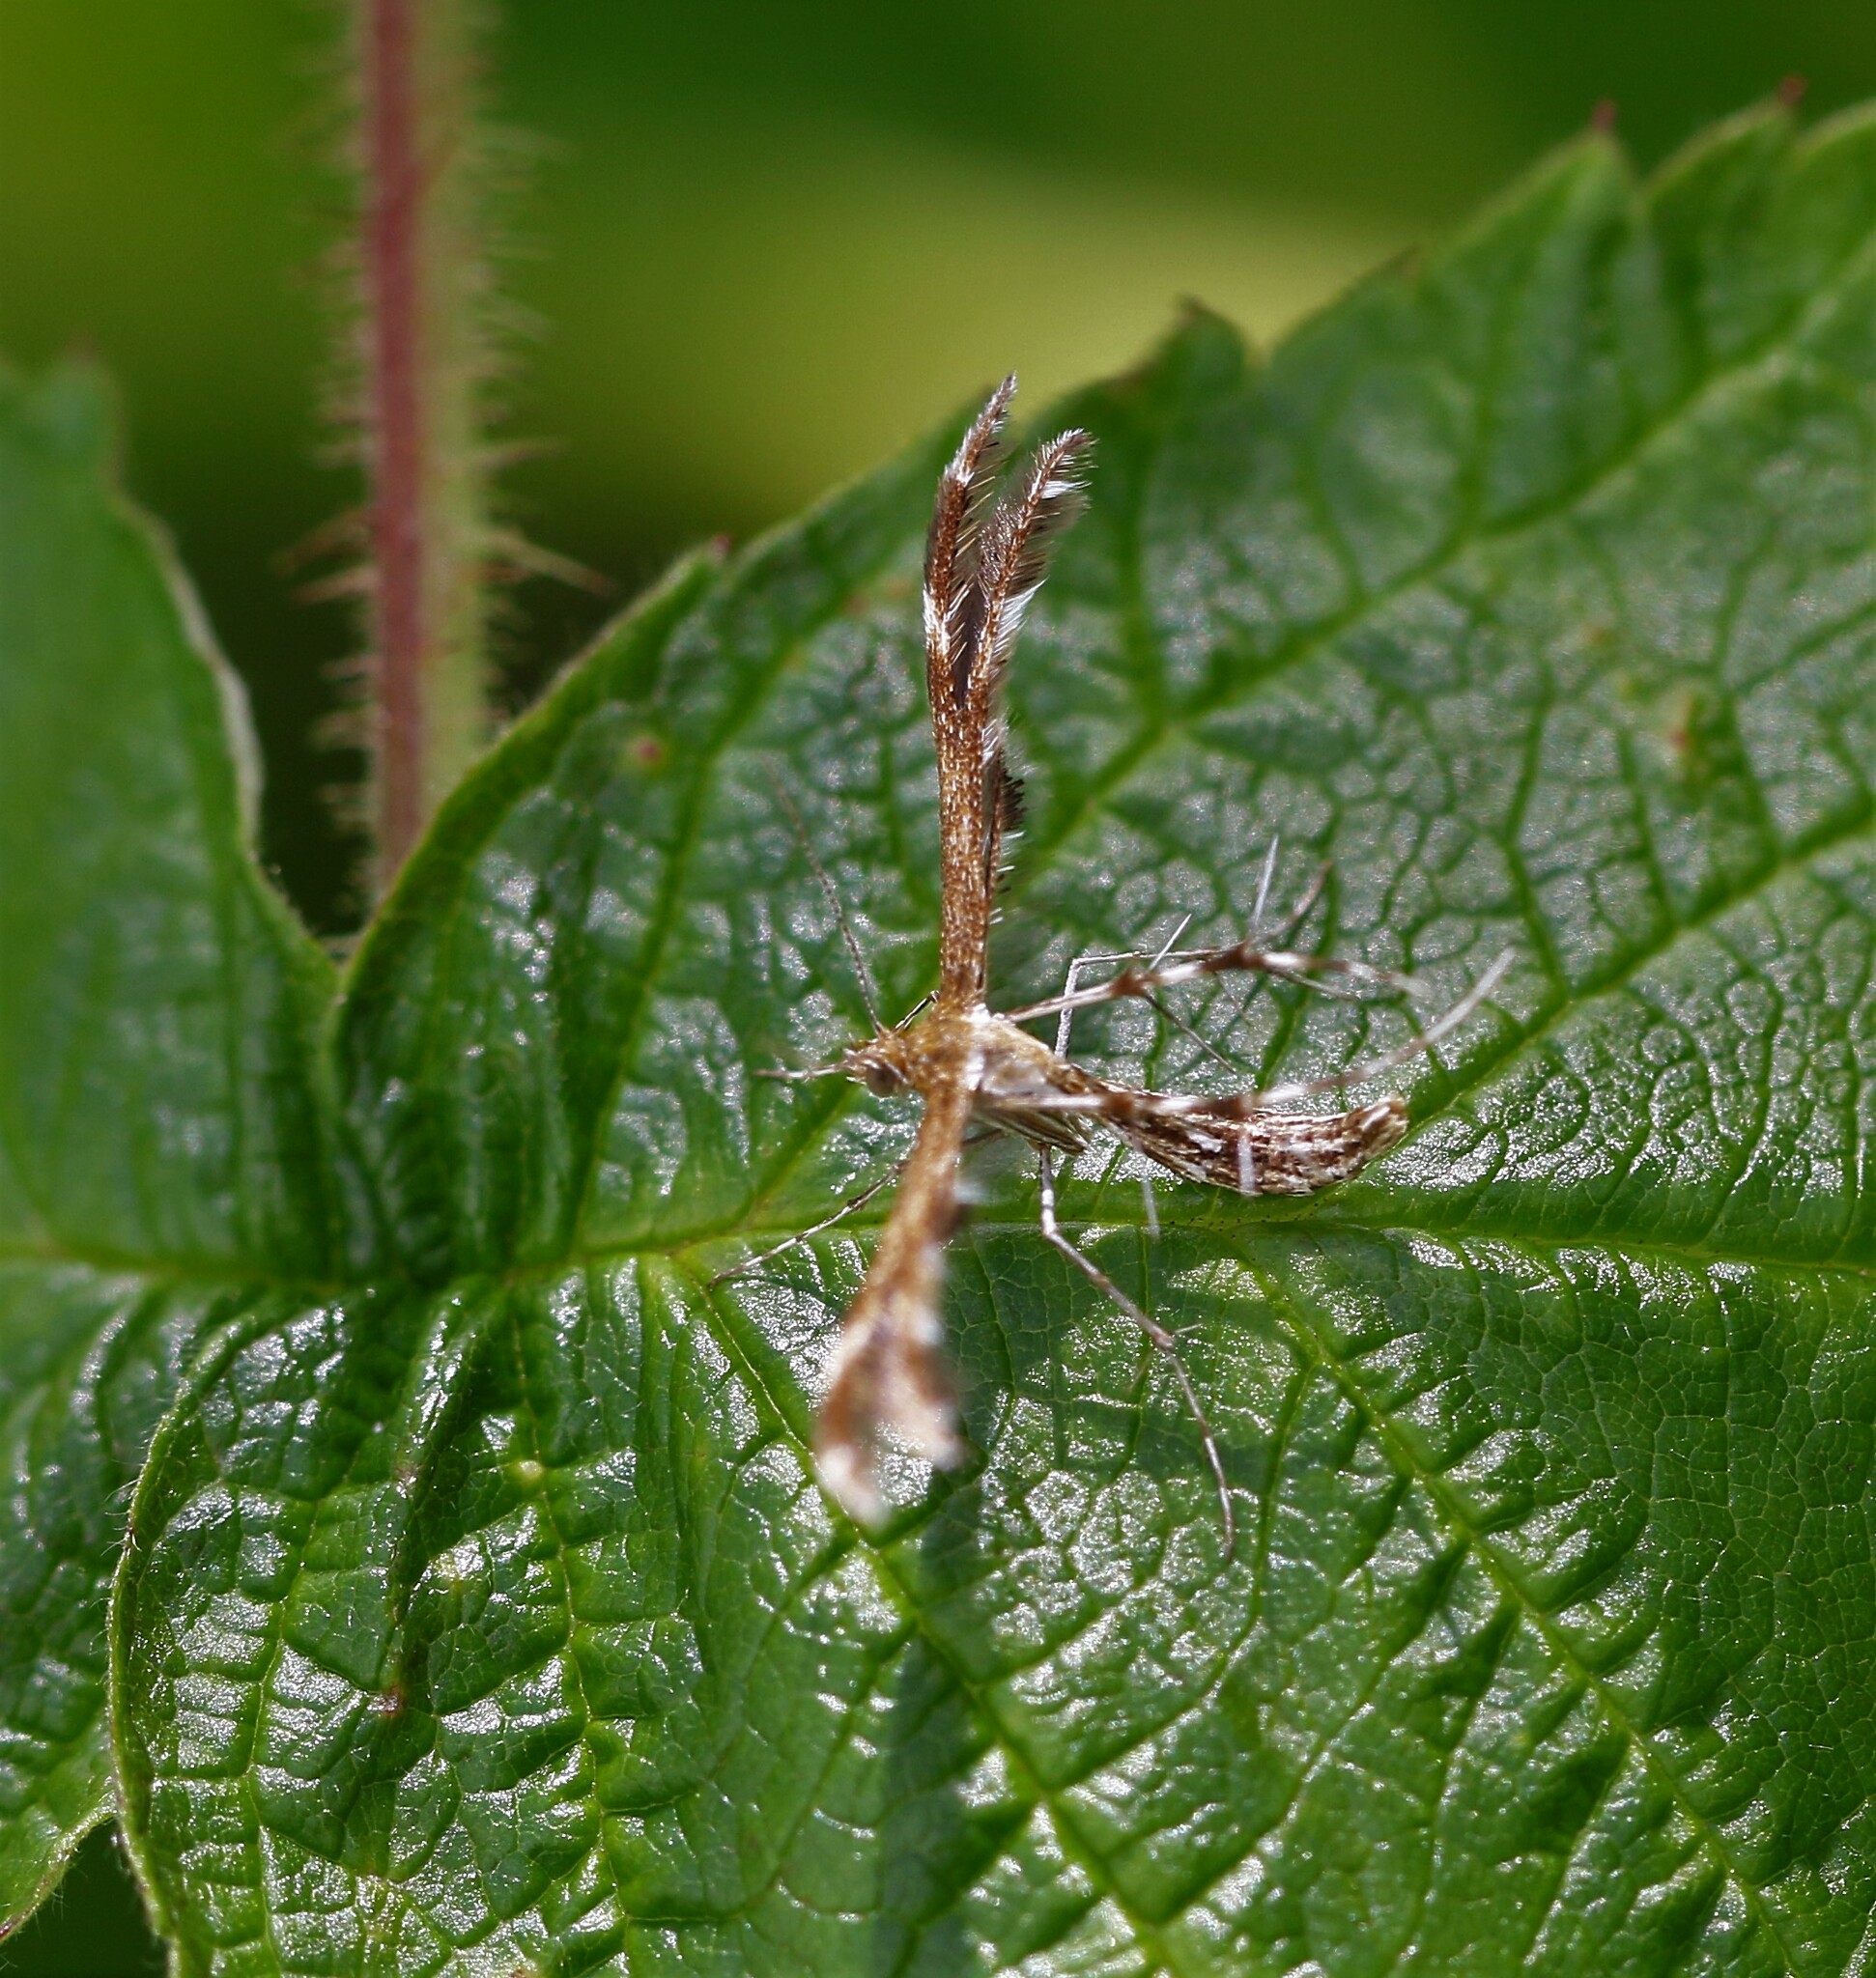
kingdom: Animalia
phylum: Arthropoda
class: Insecta
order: Lepidoptera
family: Pterophoridae
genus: Dejongia
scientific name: Dejongia lobidactylus
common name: Lobed plume moth
